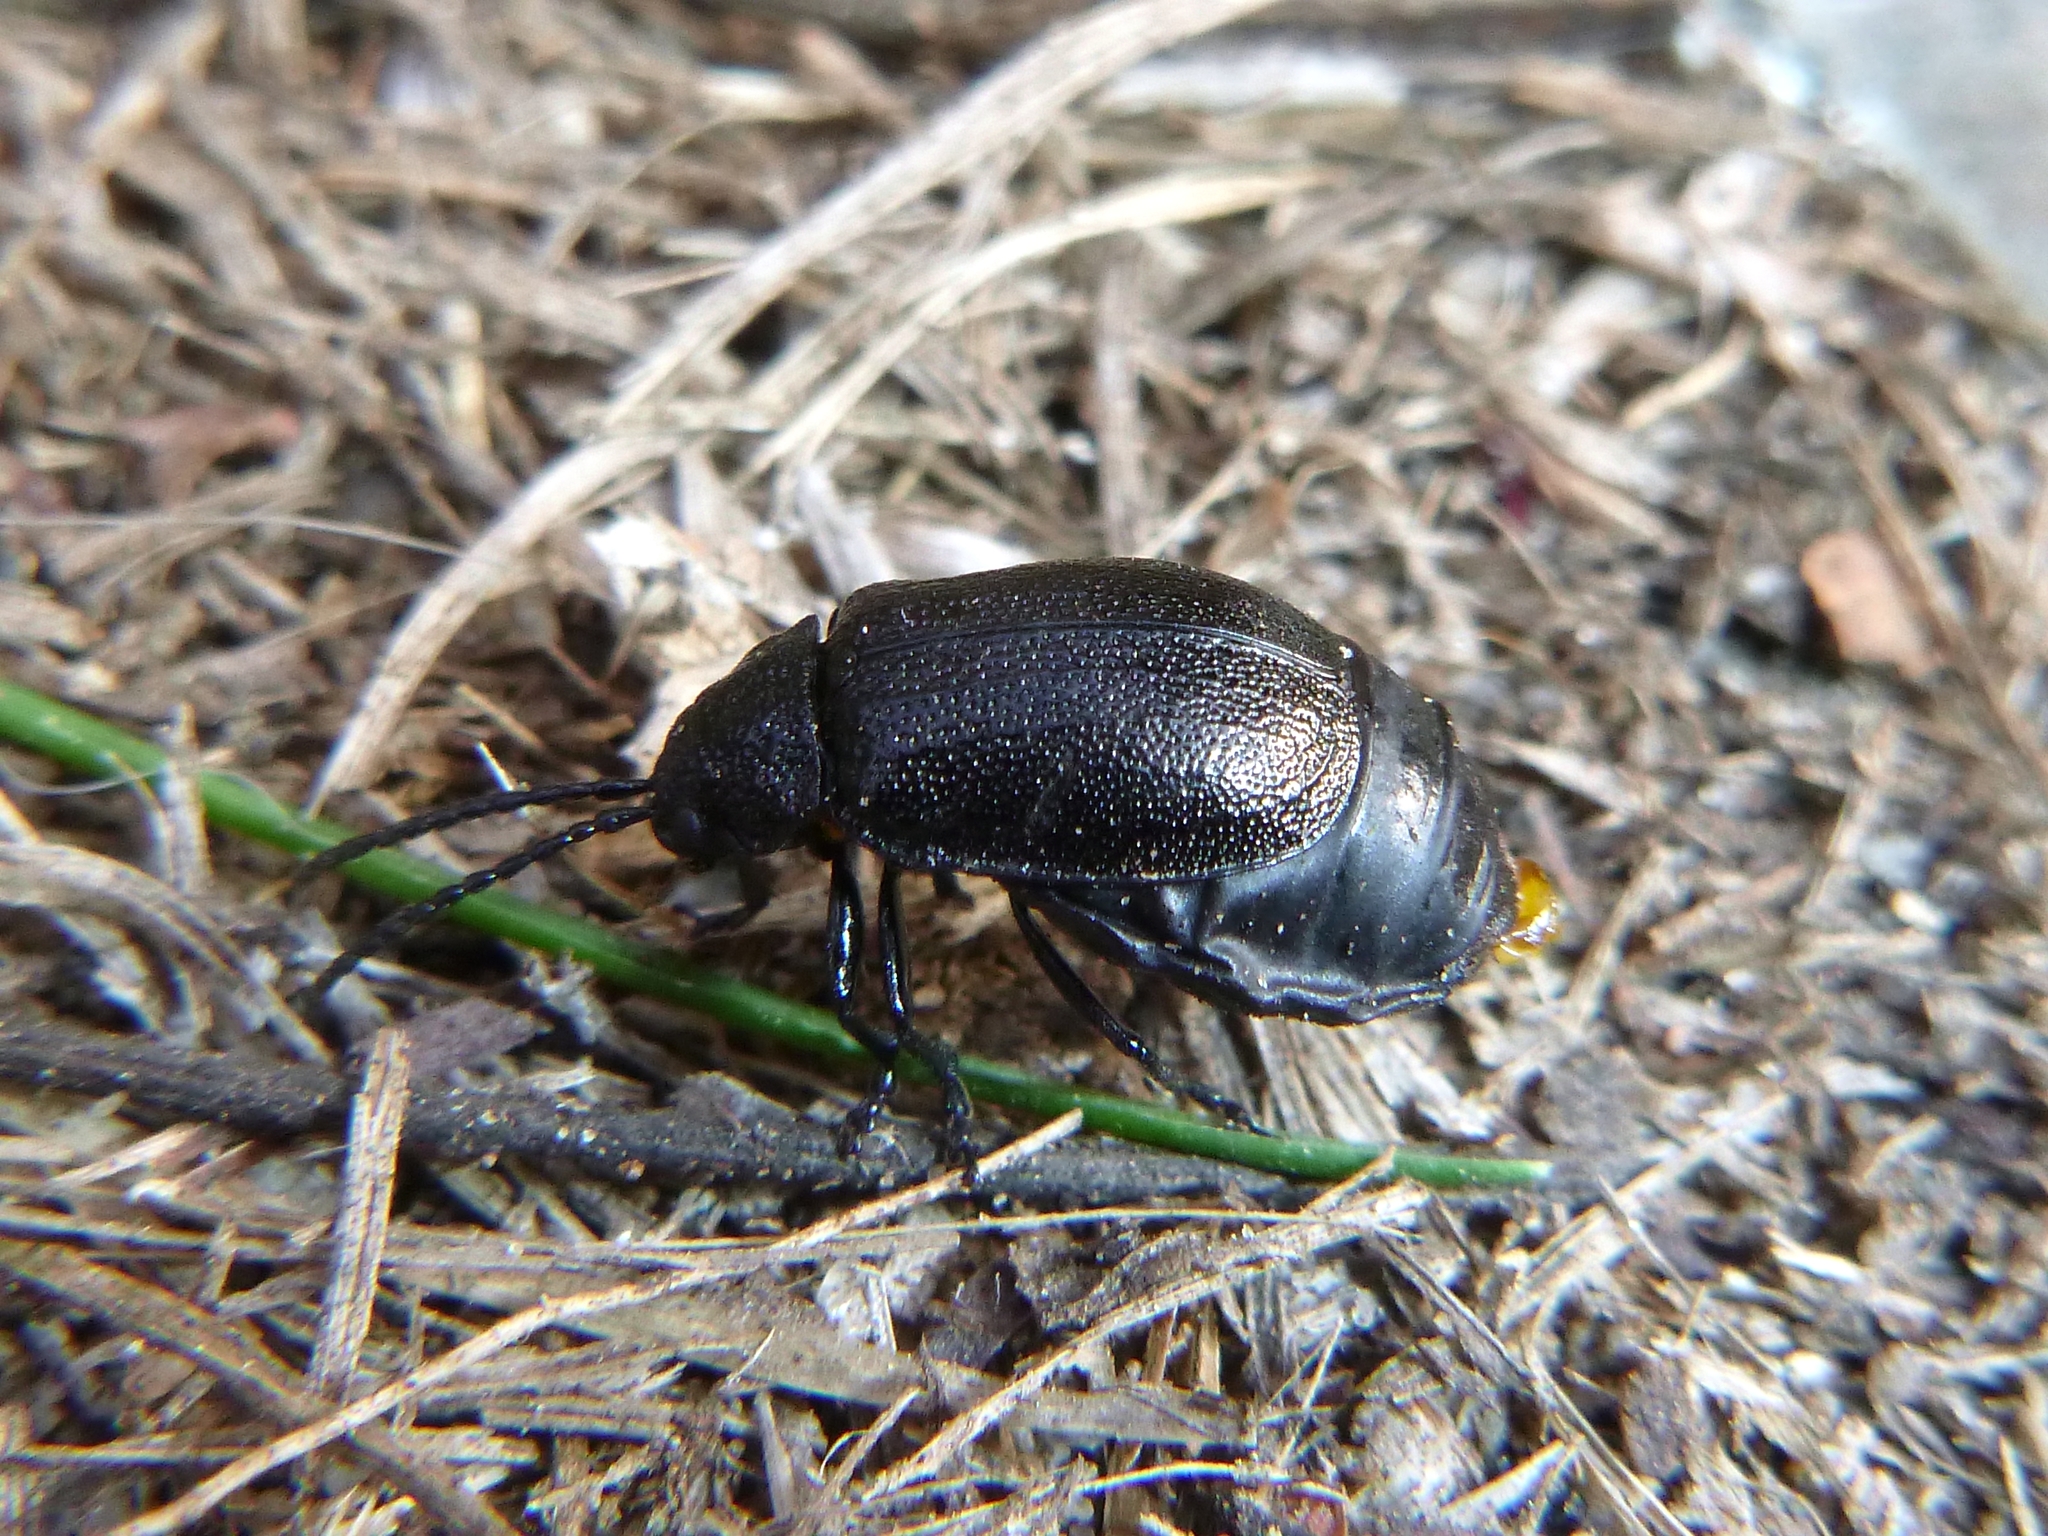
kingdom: Animalia
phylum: Arthropoda
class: Insecta
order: Coleoptera
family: Chrysomelidae
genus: Galeruca
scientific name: Galeruca tanaceti
